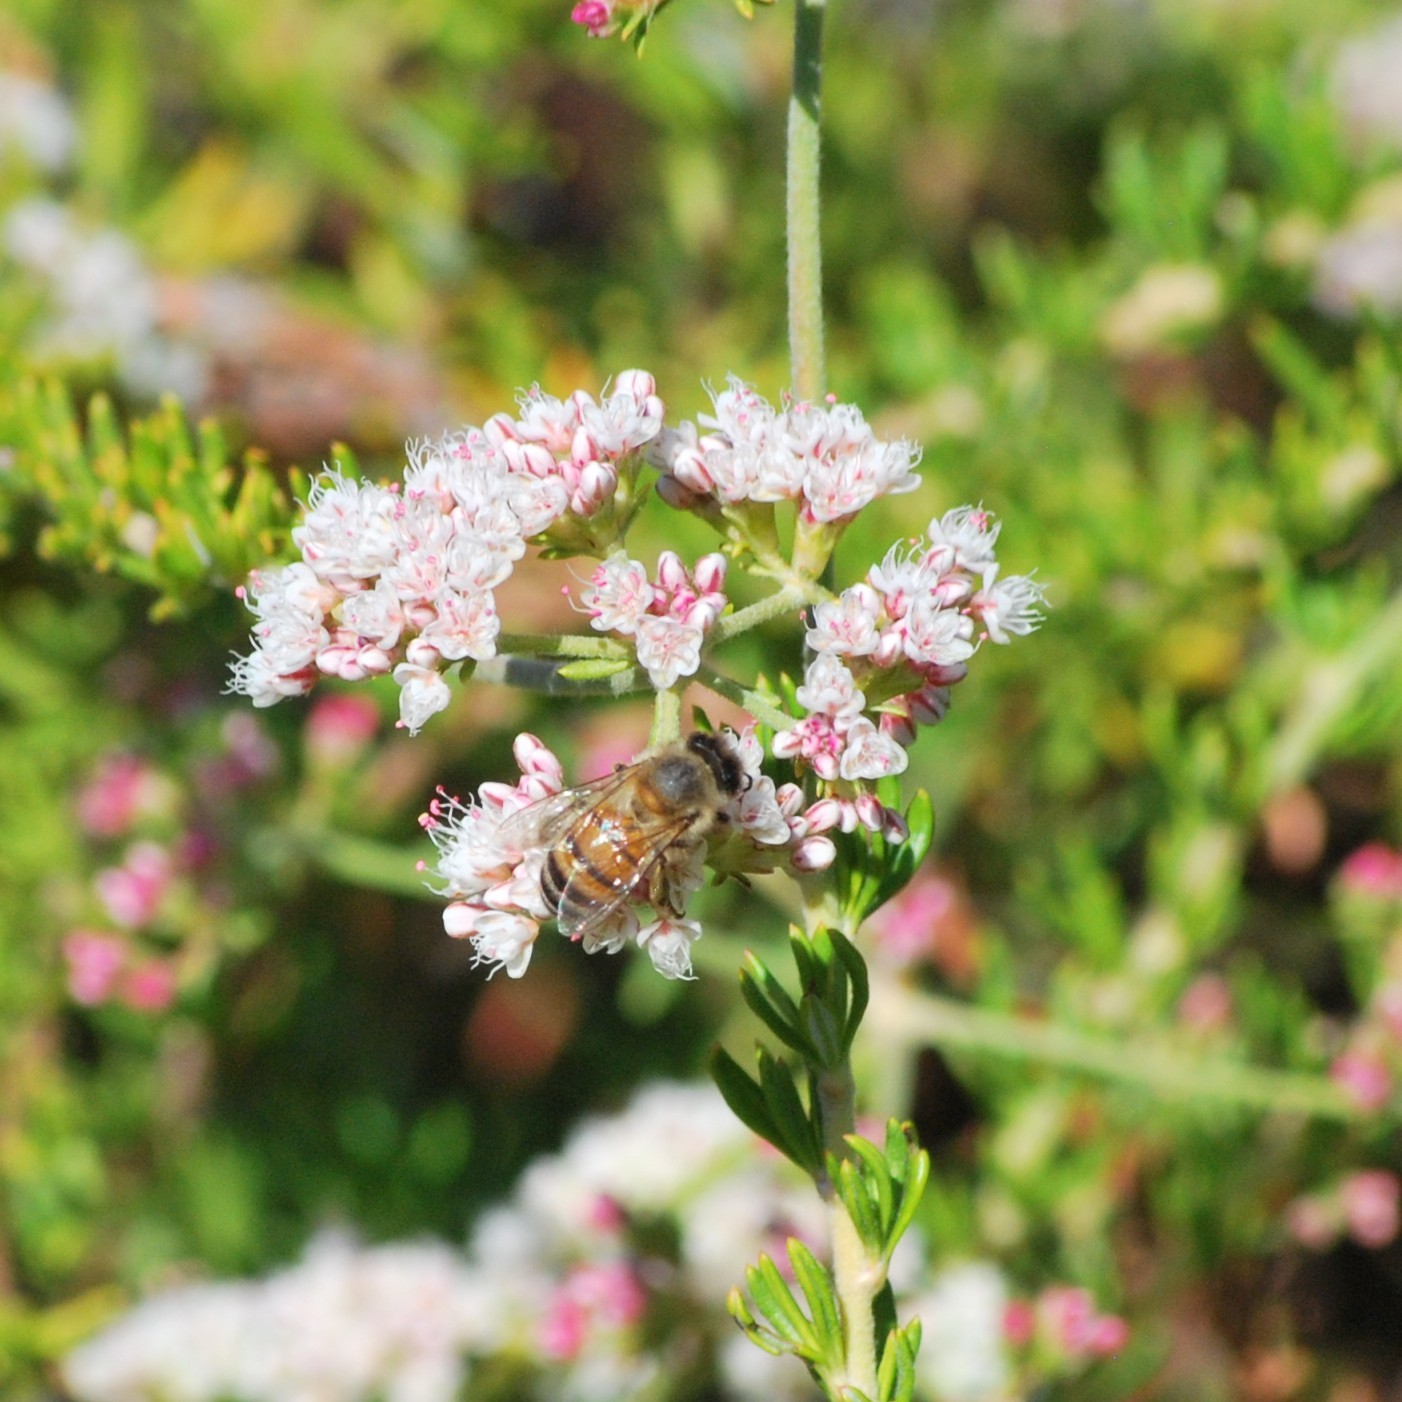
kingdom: Animalia
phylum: Arthropoda
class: Insecta
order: Hymenoptera
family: Apidae
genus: Apis
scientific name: Apis mellifera
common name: Honey bee
